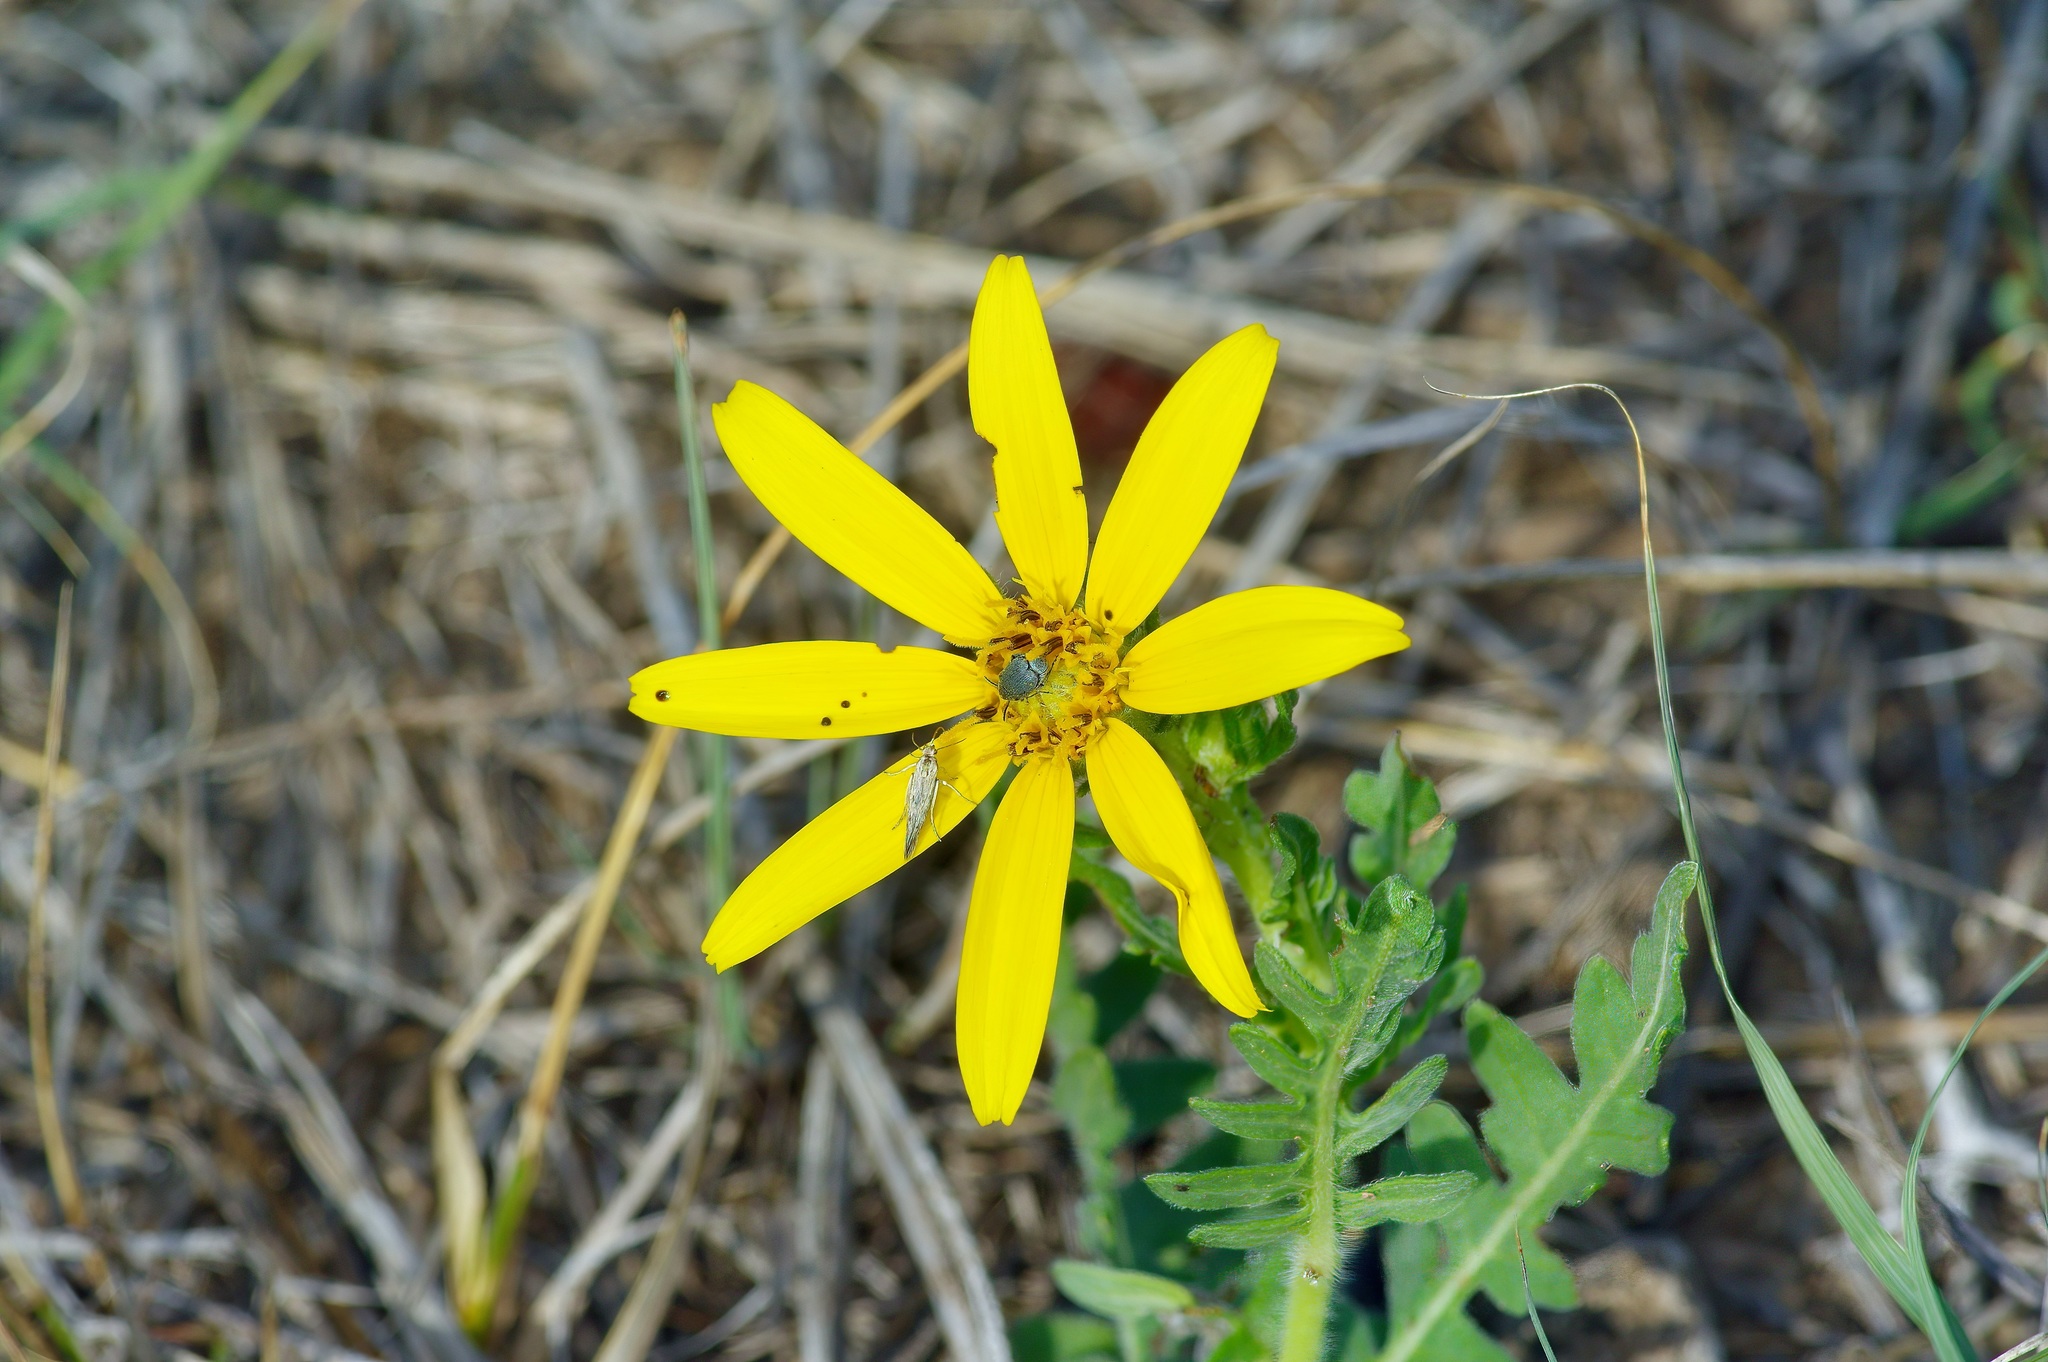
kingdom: Plantae
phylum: Tracheophyta
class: Magnoliopsida
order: Asterales
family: Asteraceae
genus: Engelmannia
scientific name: Engelmannia peristenia
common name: Engelmann's daisy
